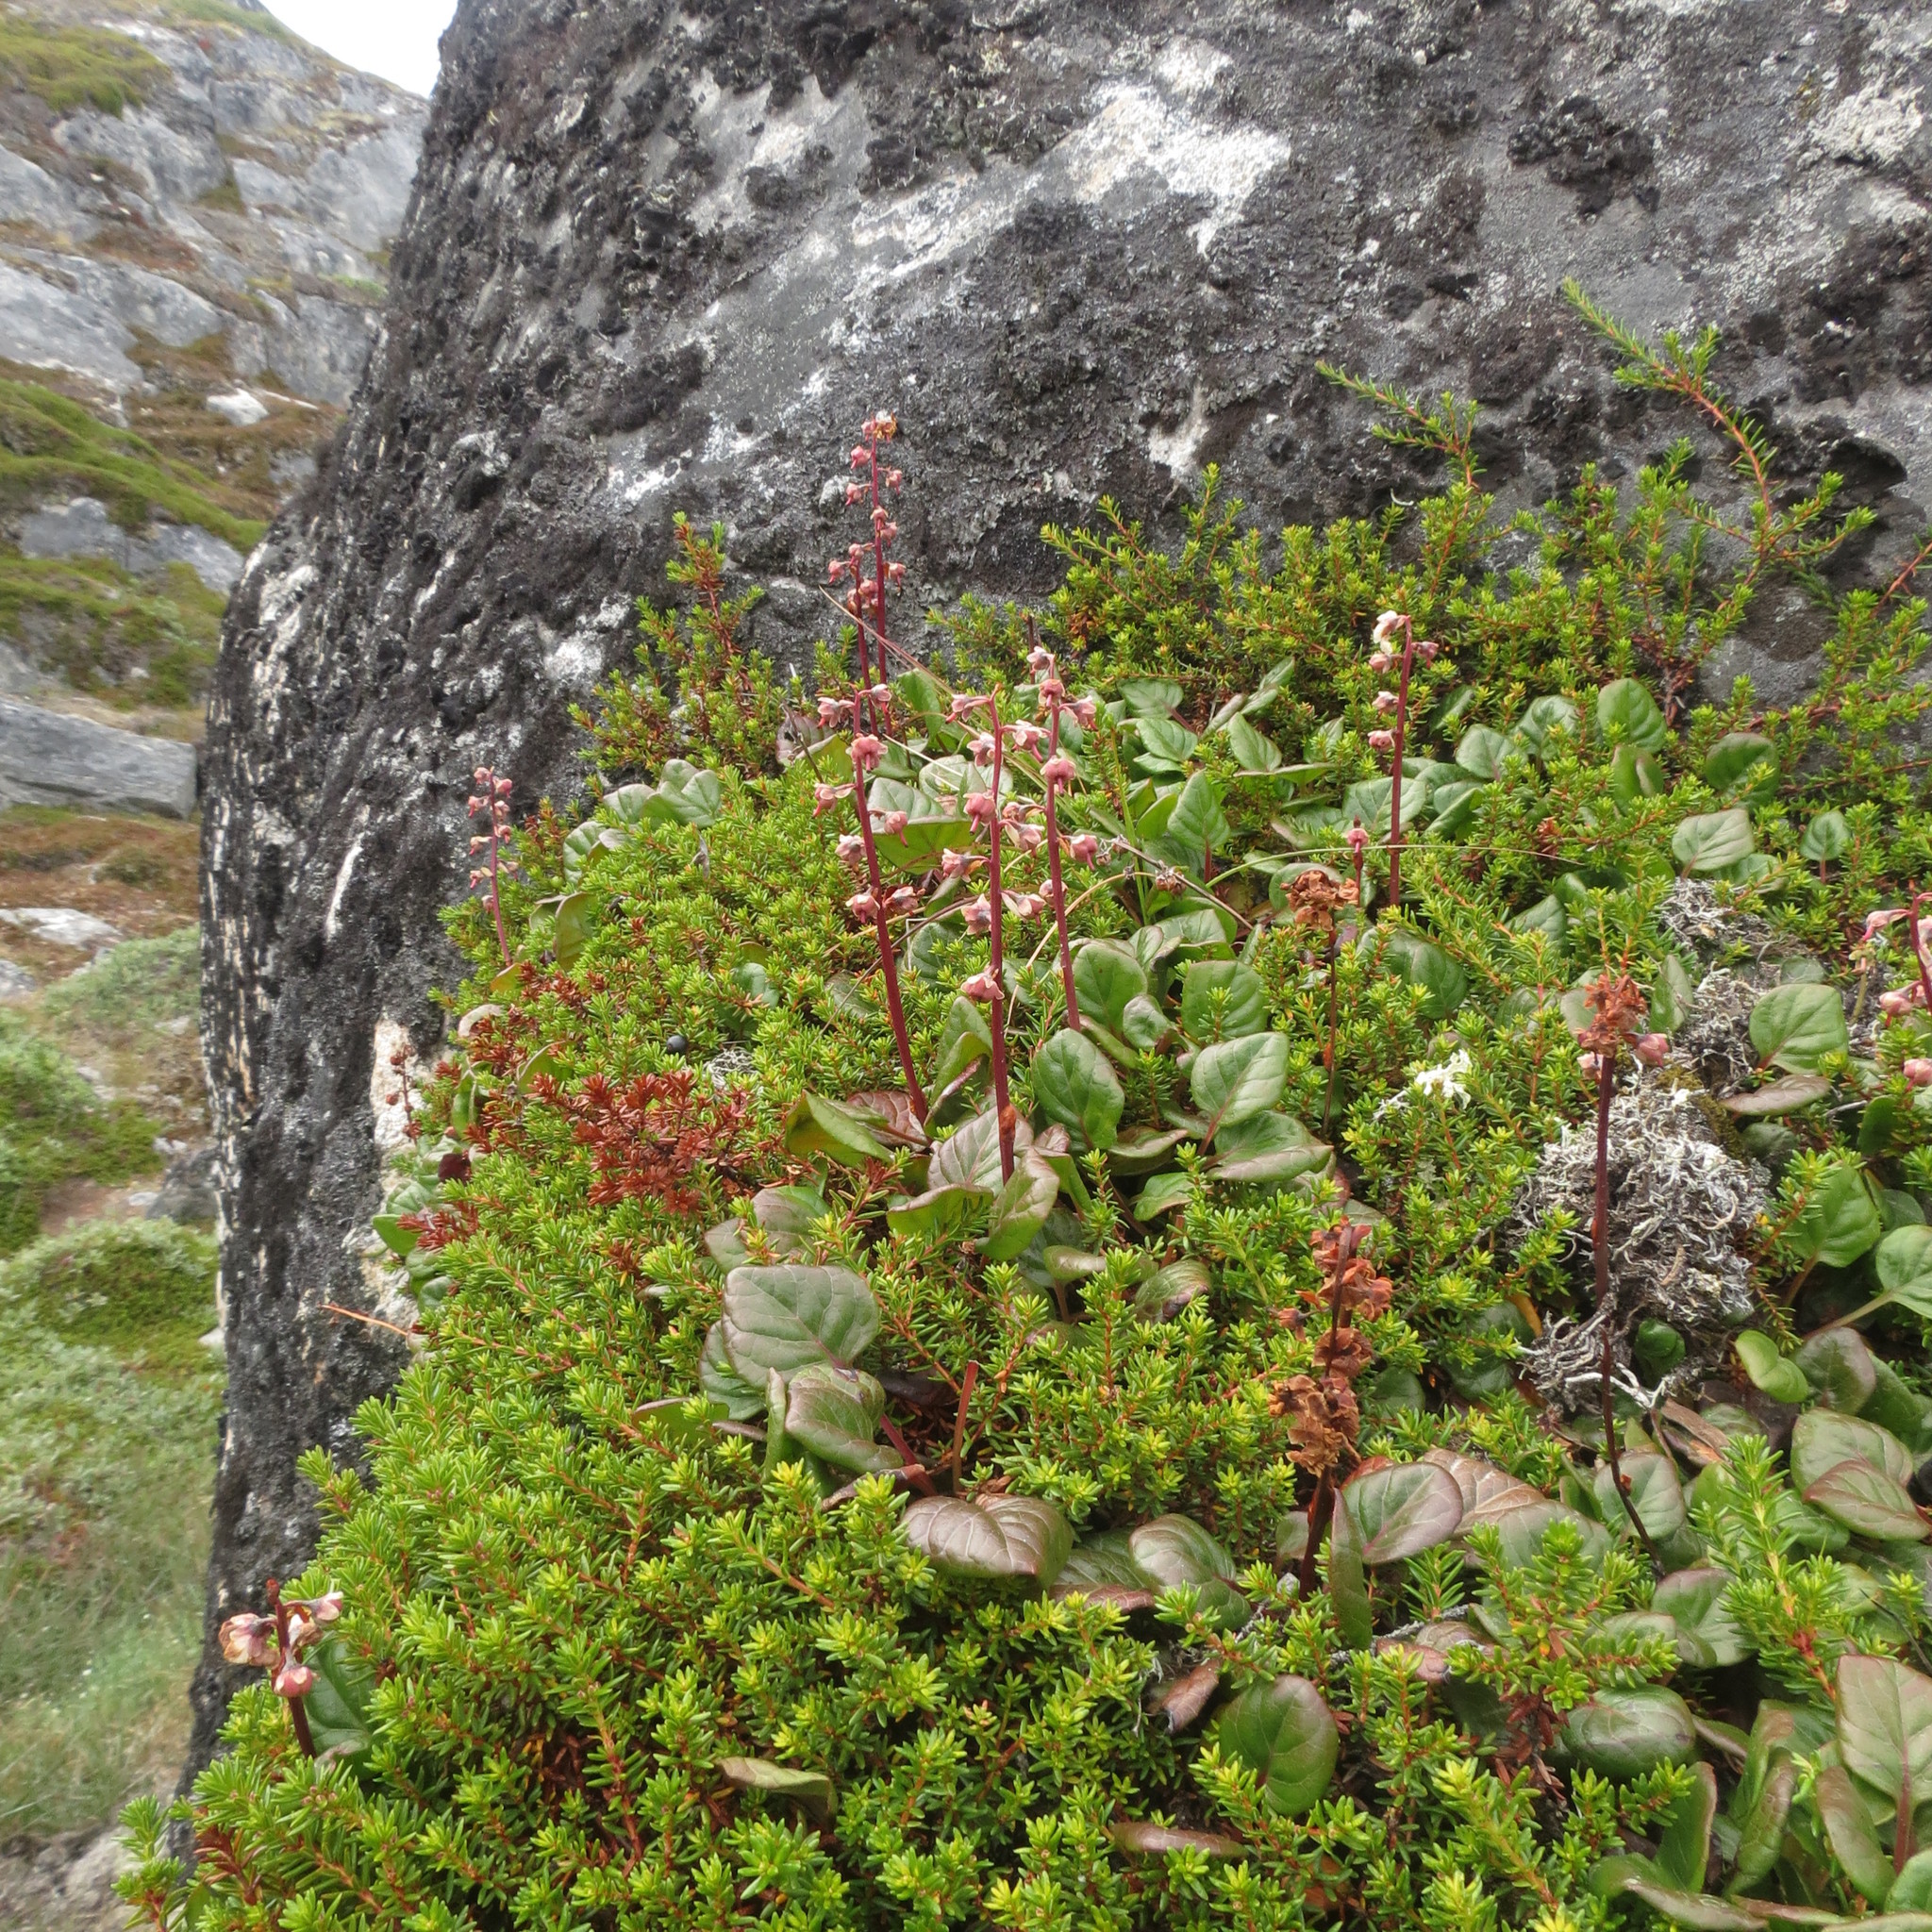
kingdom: Plantae
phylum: Tracheophyta
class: Magnoliopsida
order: Ericales
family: Ericaceae
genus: Pyrola
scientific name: Pyrola minor
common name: Common wintergreen
